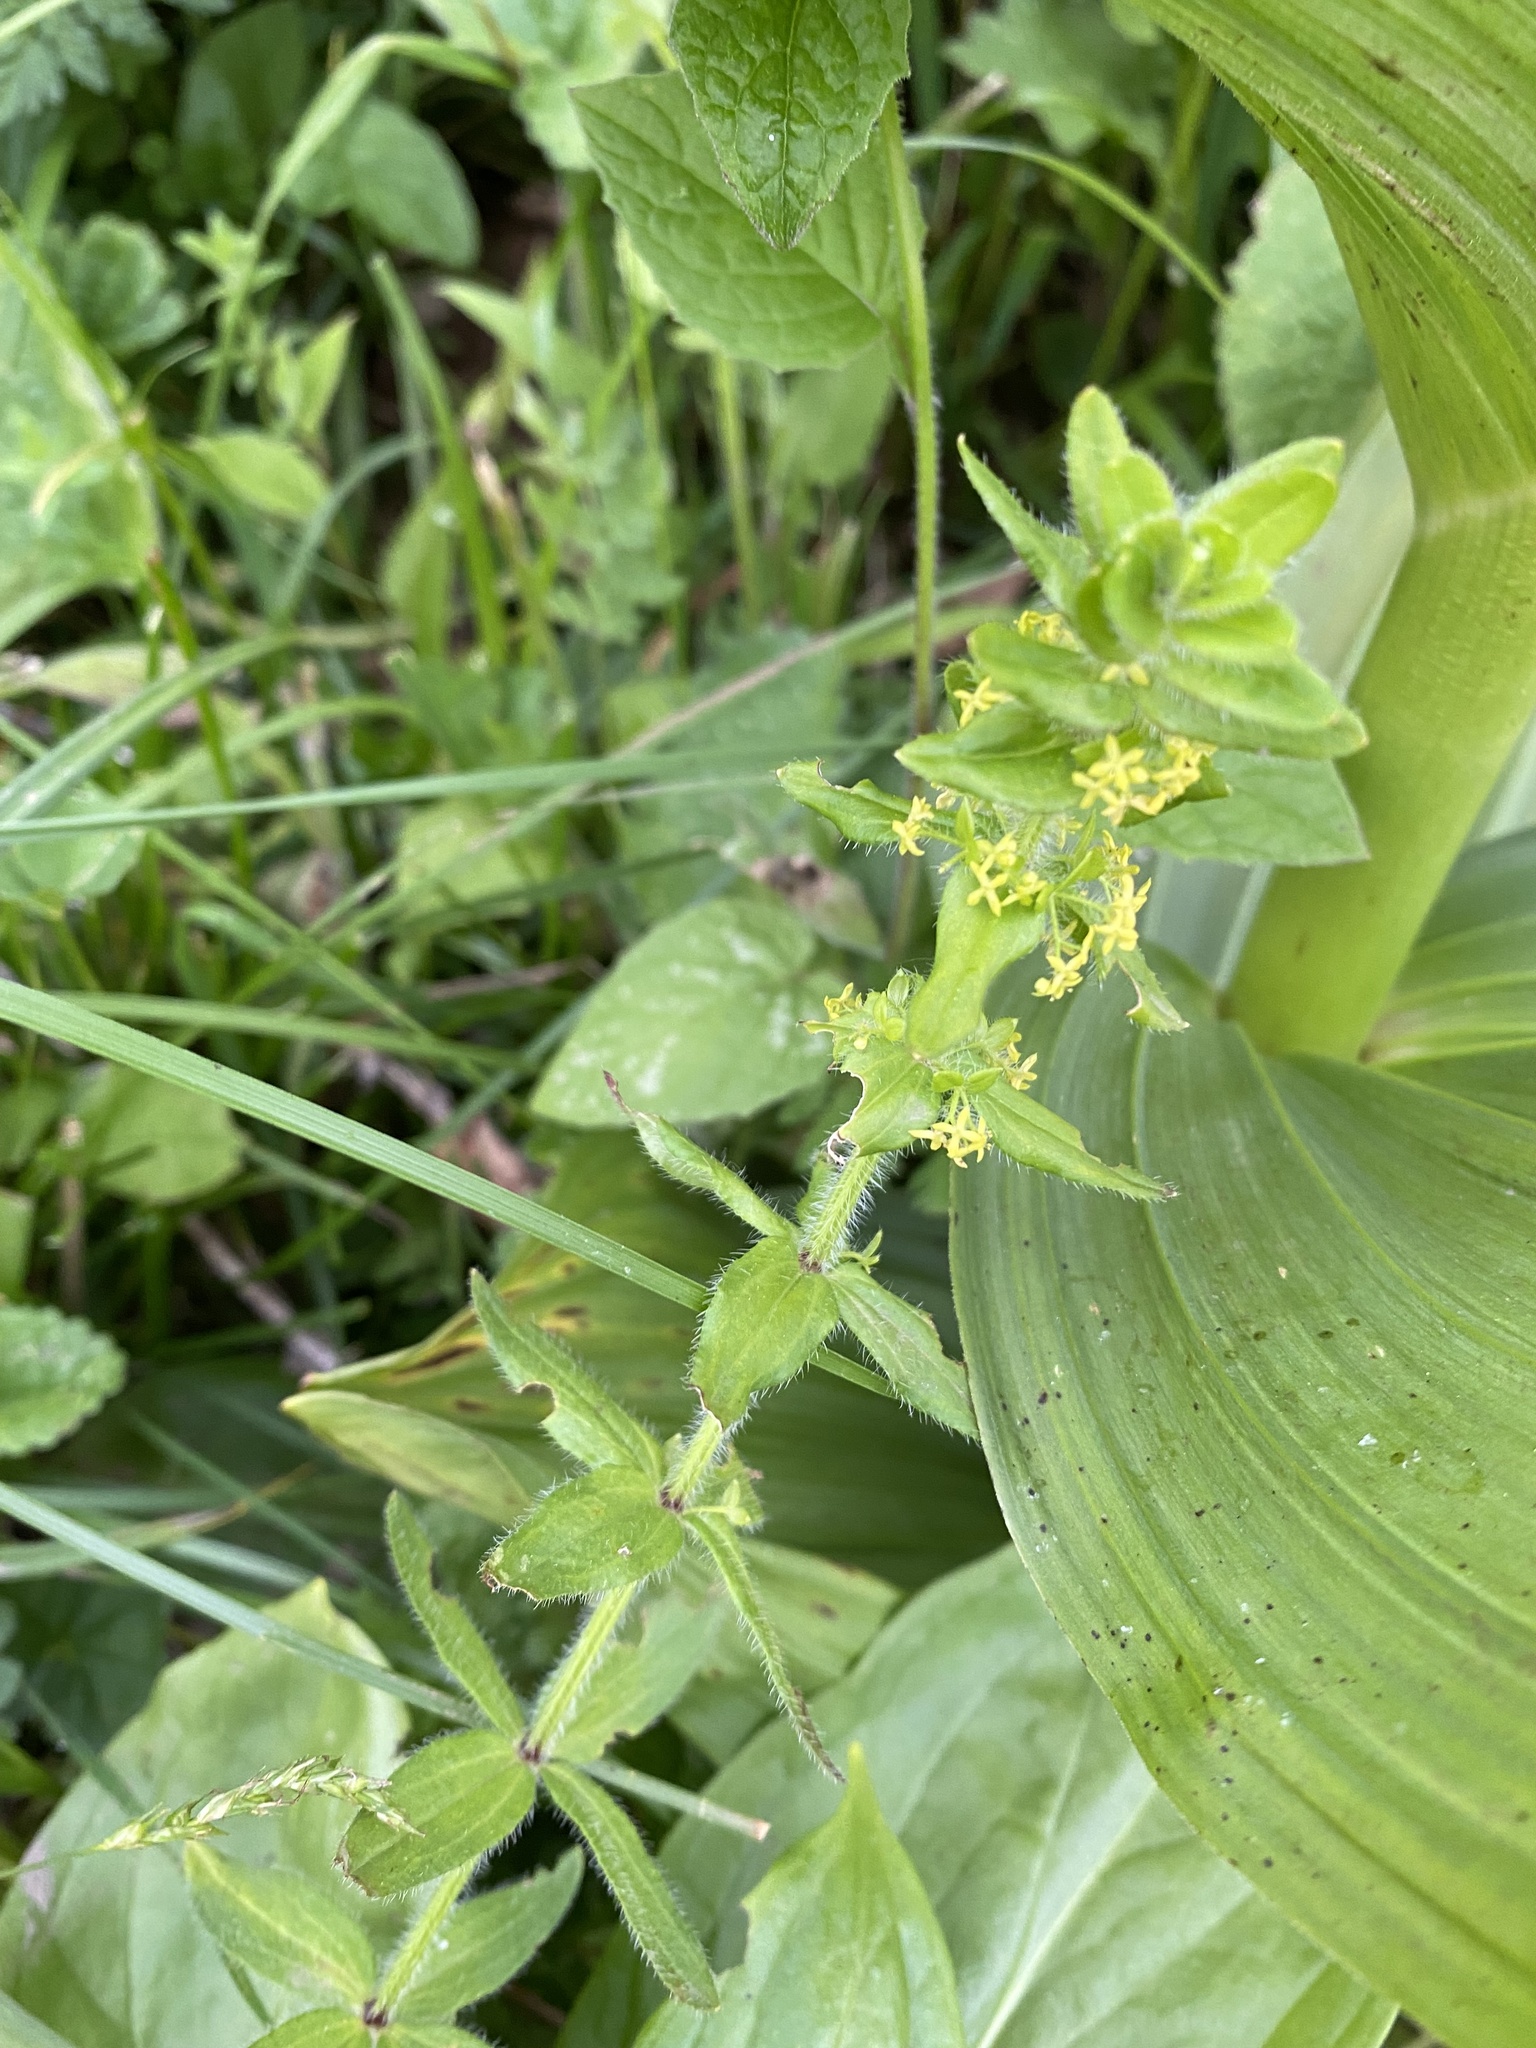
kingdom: Plantae
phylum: Tracheophyta
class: Magnoliopsida
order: Gentianales
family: Rubiaceae
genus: Cruciata
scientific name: Cruciata laevipes
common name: Crosswort
